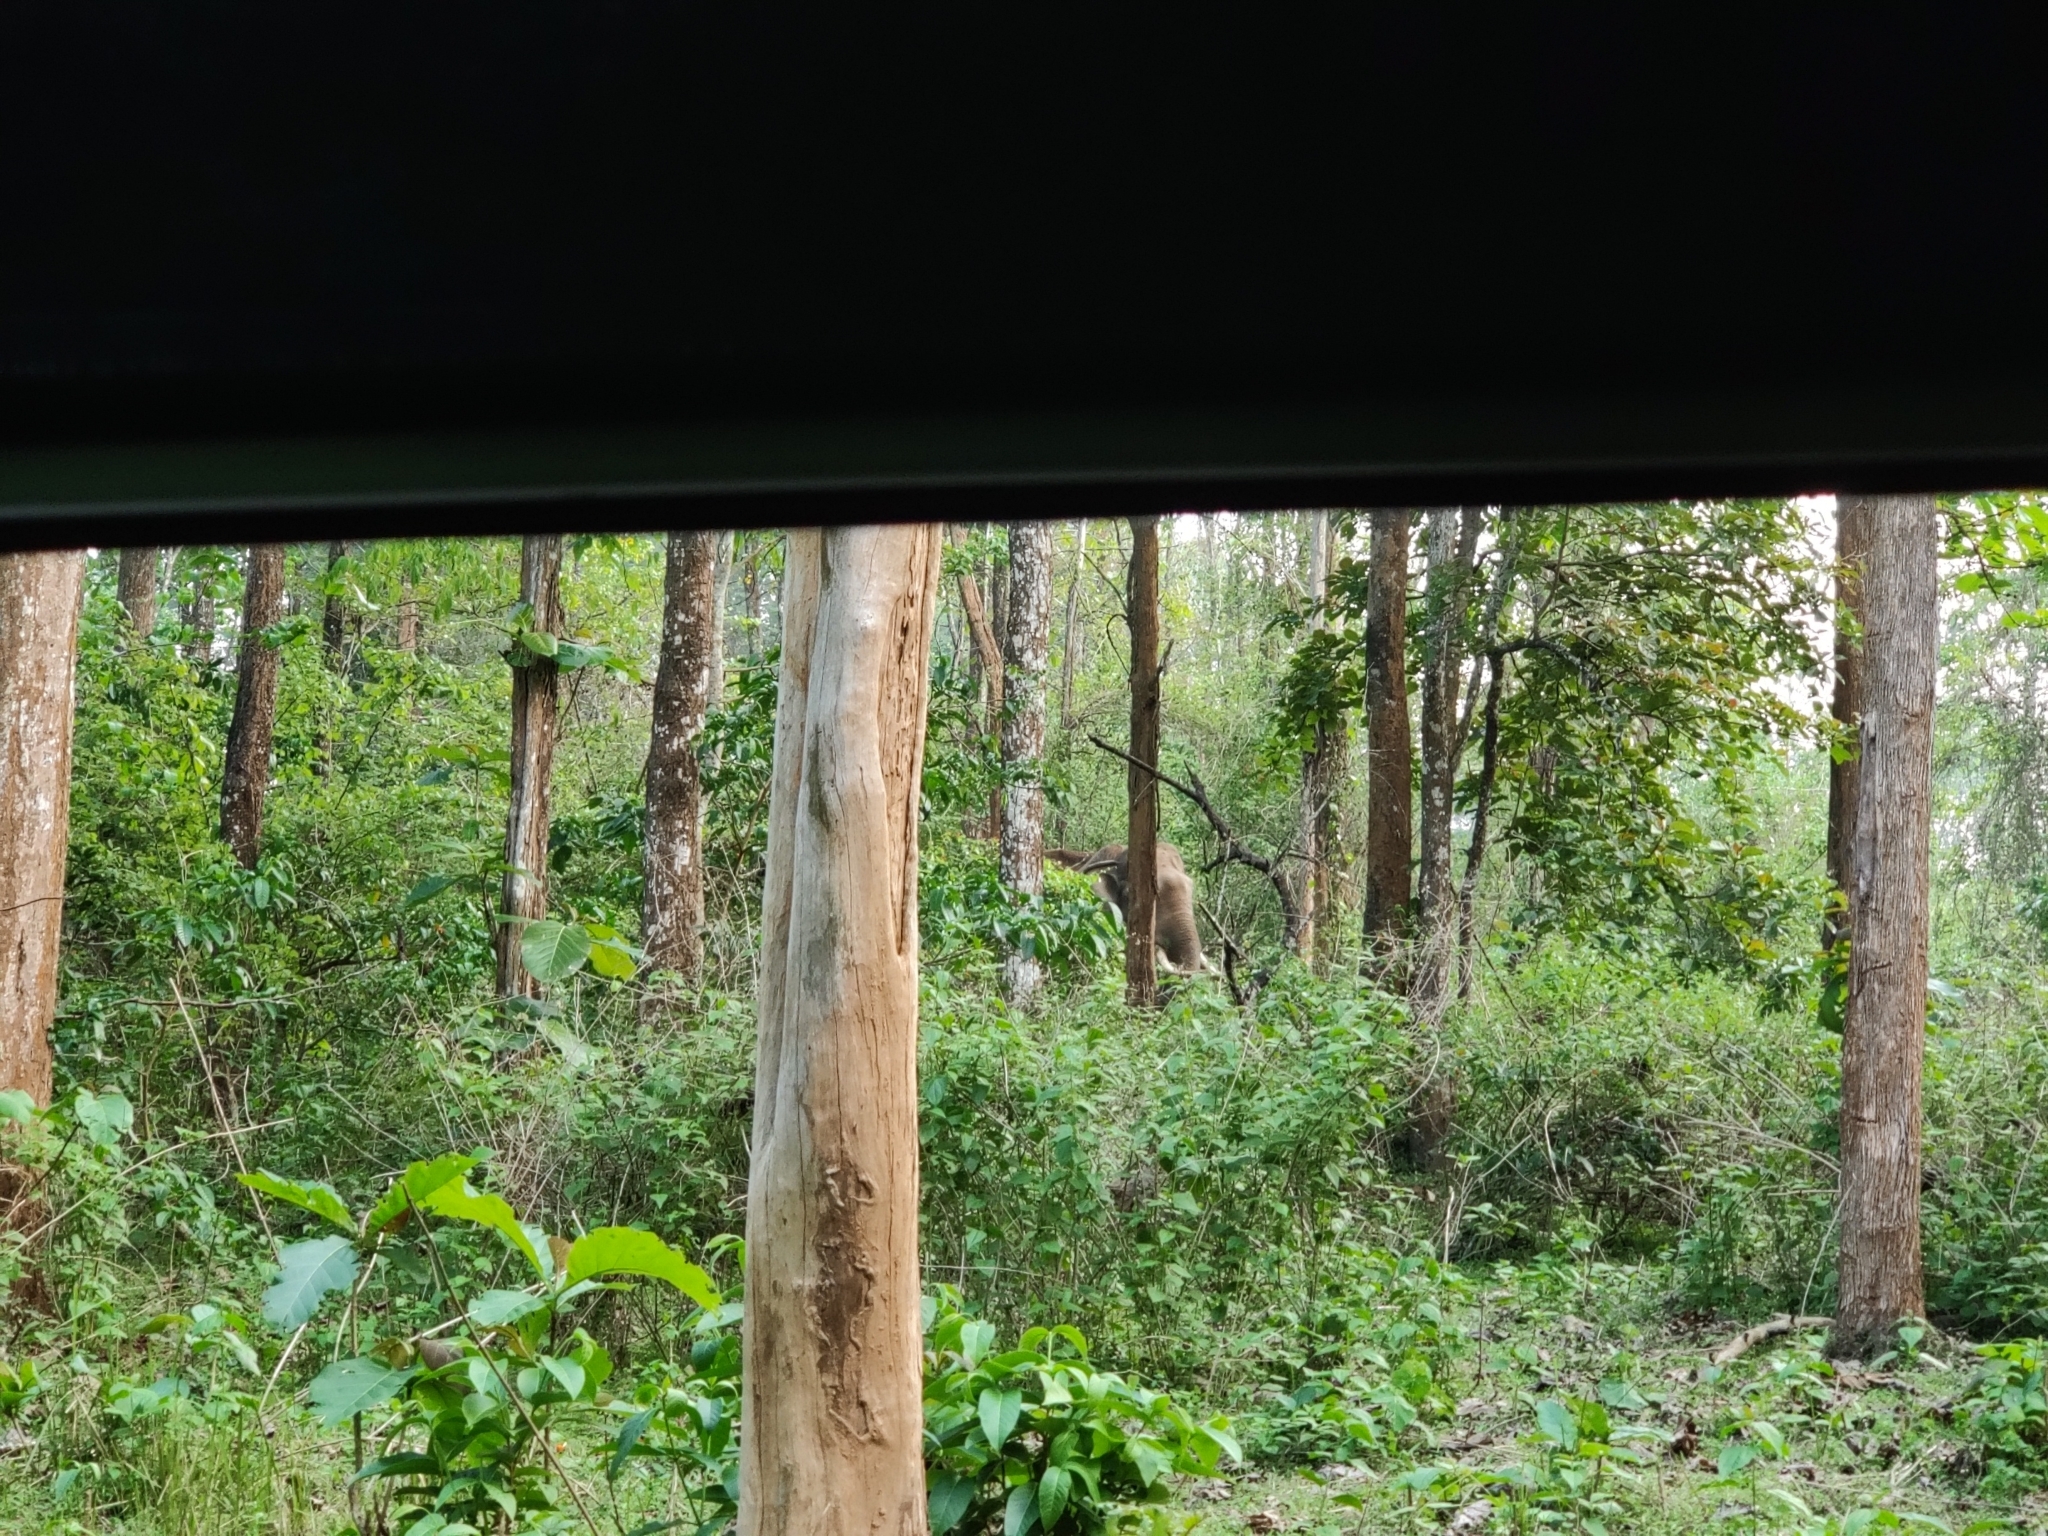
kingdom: Animalia
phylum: Chordata
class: Mammalia
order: Proboscidea
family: Elephantidae
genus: Elephas
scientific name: Elephas maximus
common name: Asian elephant
